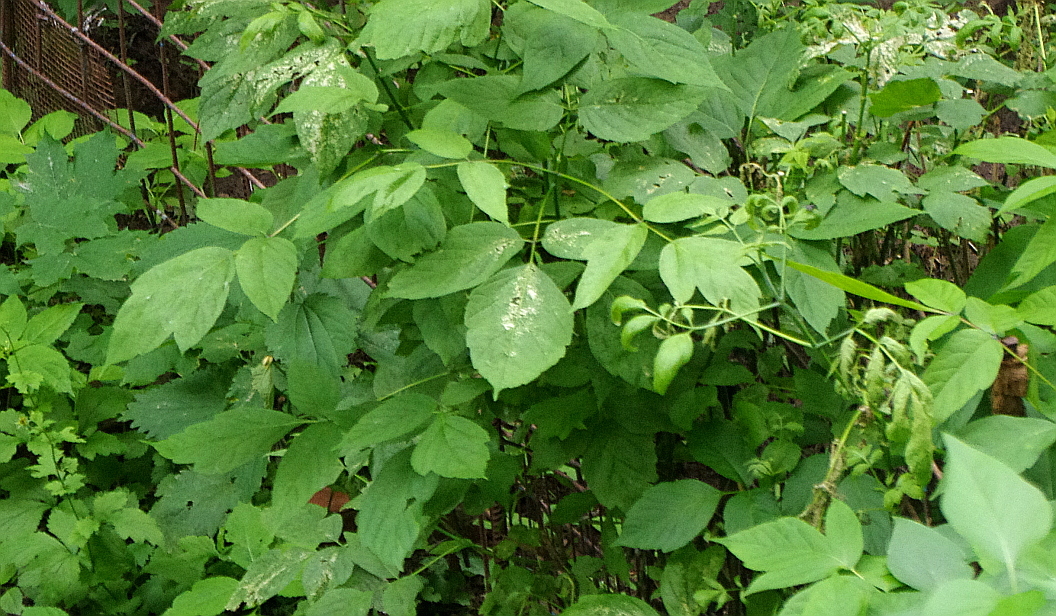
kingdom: Plantae
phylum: Tracheophyta
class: Magnoliopsida
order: Sapindales
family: Sapindaceae
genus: Acer
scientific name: Acer negundo
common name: Ashleaf maple
